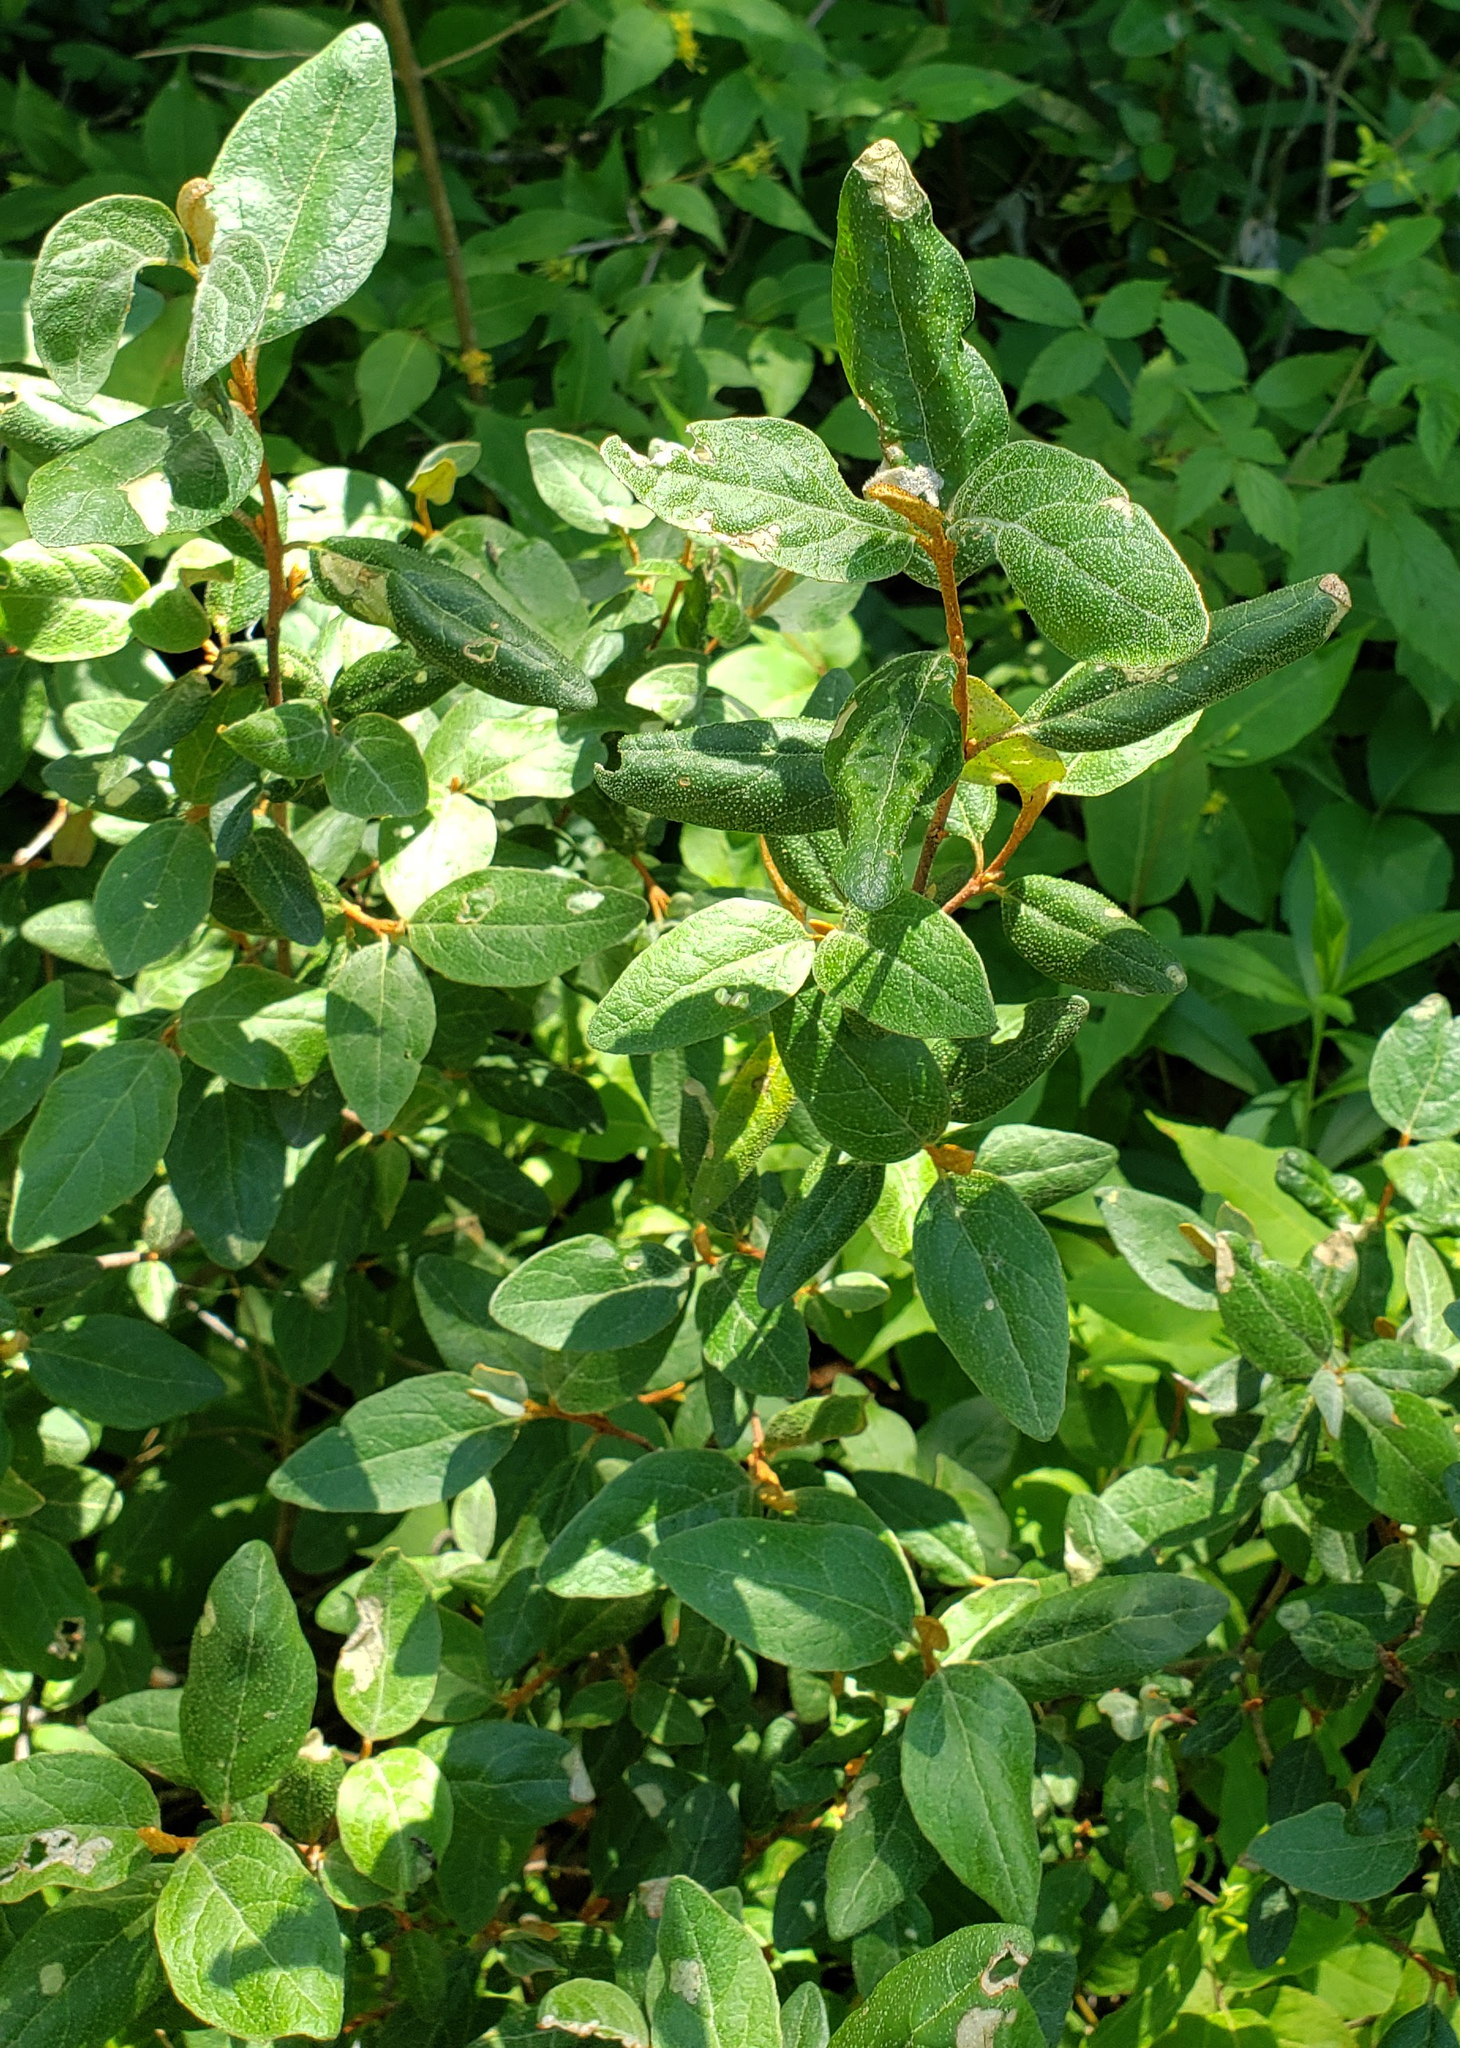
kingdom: Plantae
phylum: Tracheophyta
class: Magnoliopsida
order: Rosales
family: Elaeagnaceae
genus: Shepherdia
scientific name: Shepherdia canadensis
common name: Soapberry
